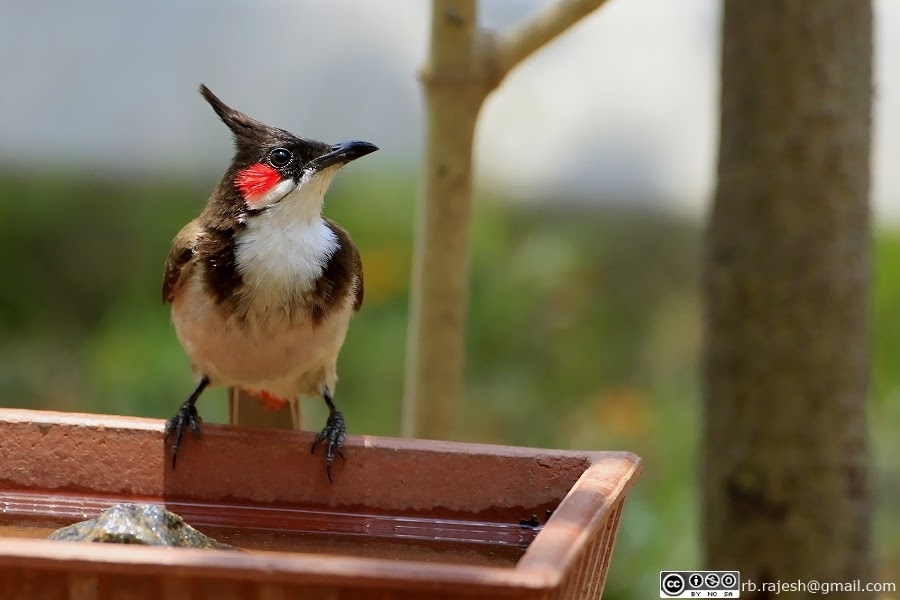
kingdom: Animalia
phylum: Chordata
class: Aves
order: Passeriformes
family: Pycnonotidae
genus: Pycnonotus
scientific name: Pycnonotus jocosus
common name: Red-whiskered bulbul
